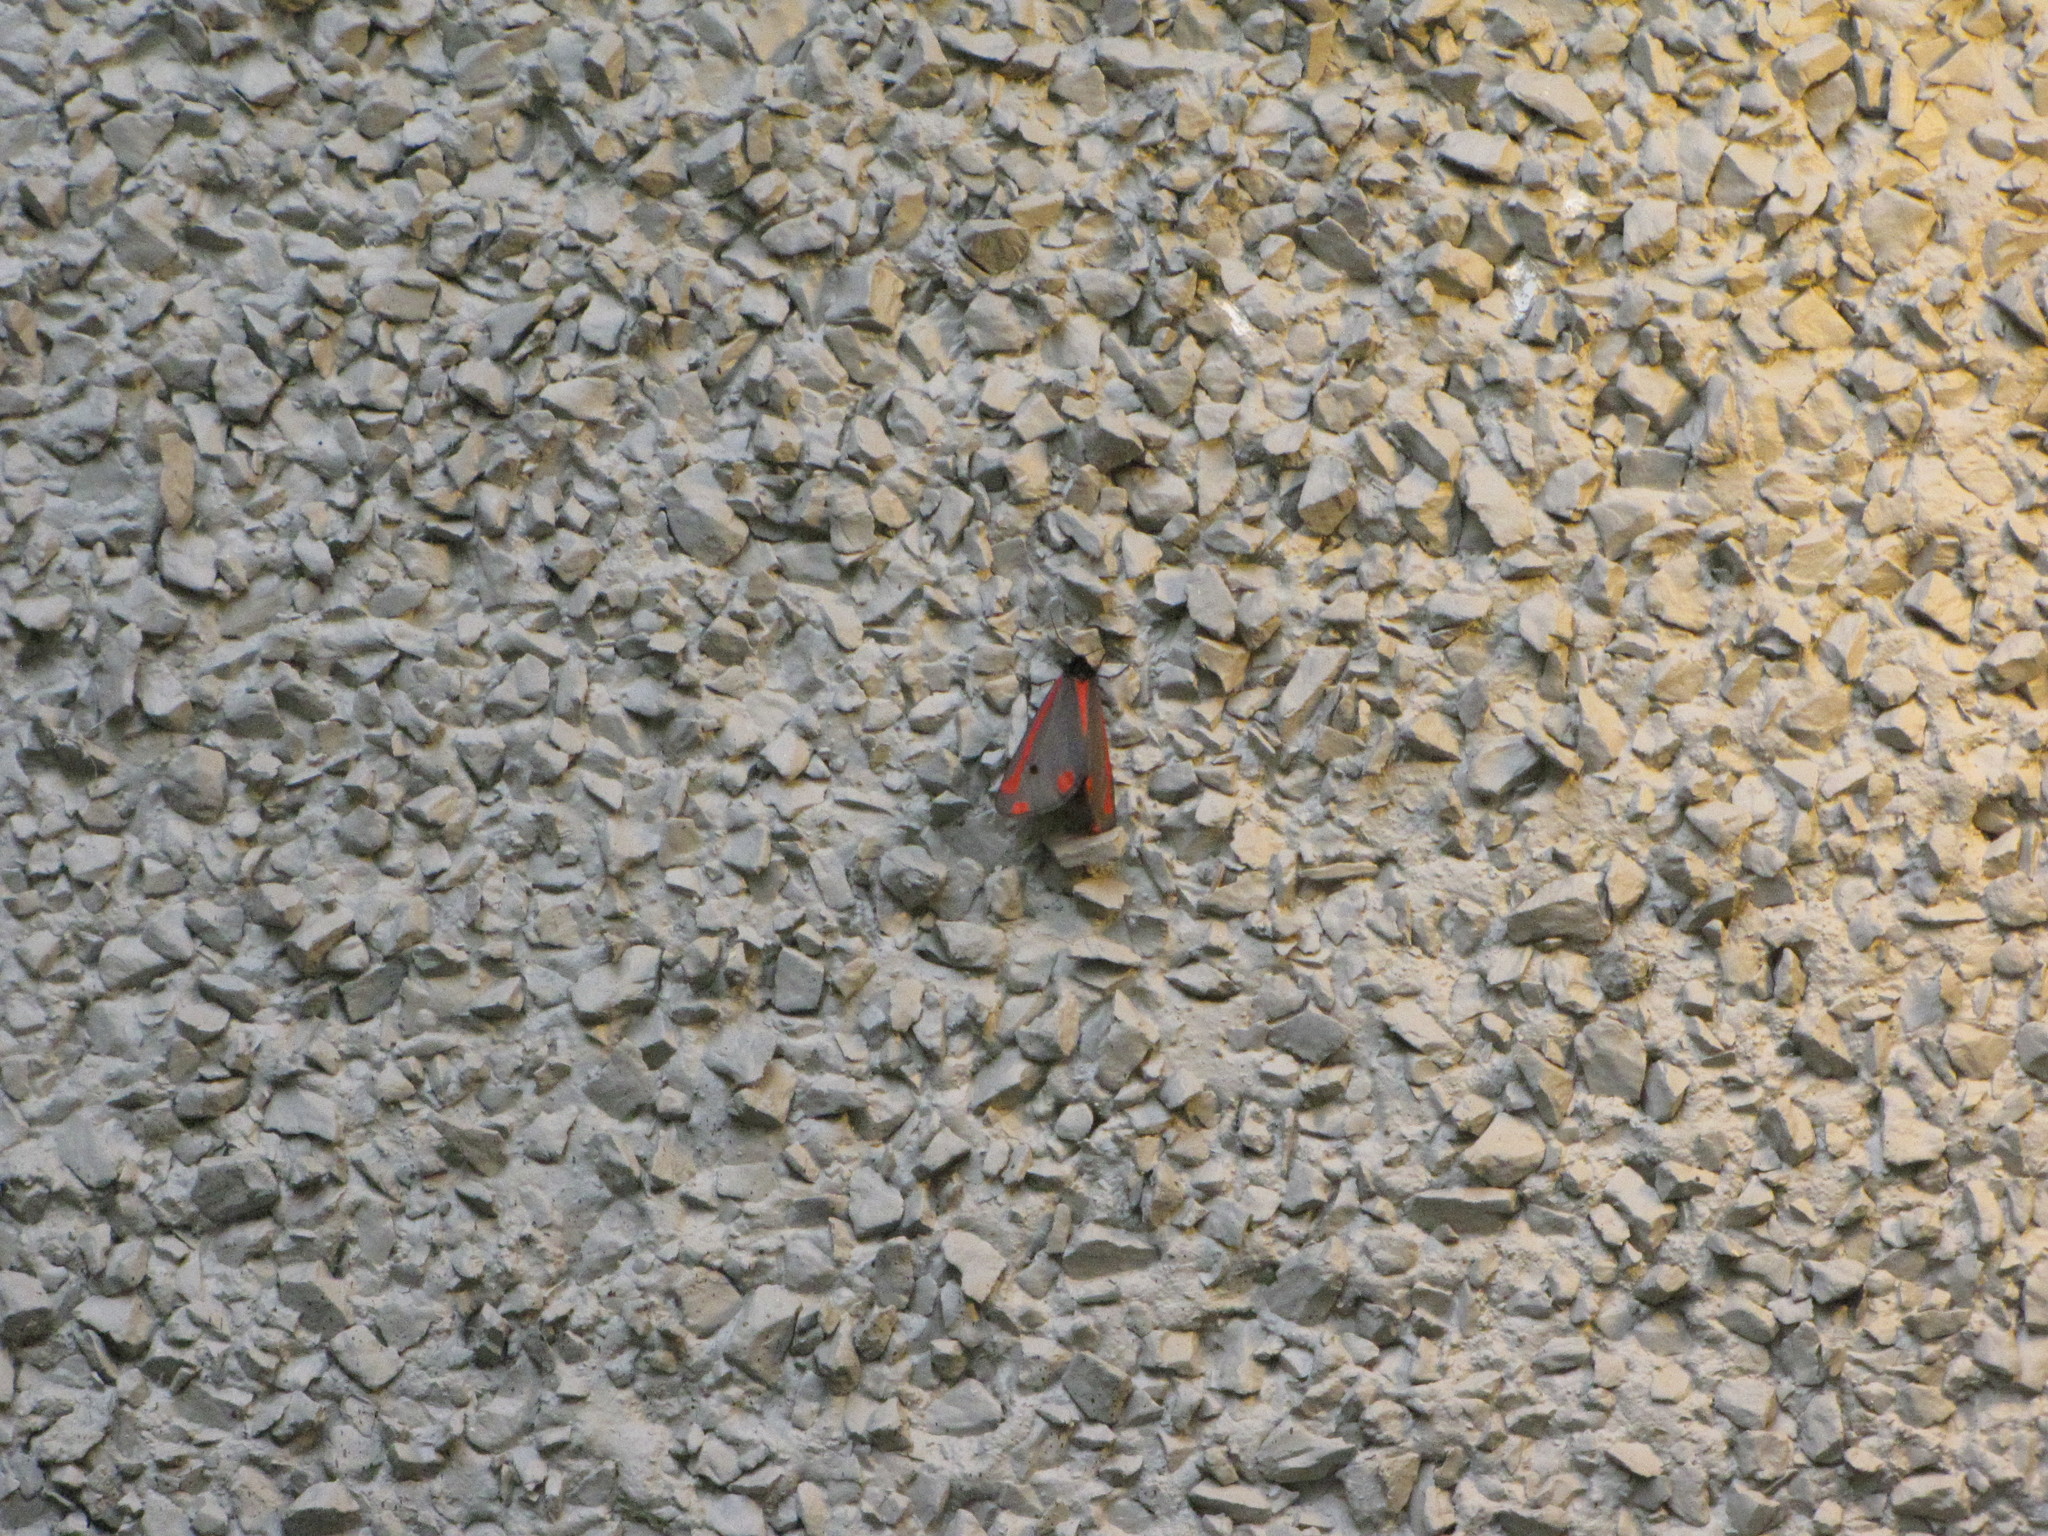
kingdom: Animalia
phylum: Arthropoda
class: Insecta
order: Lepidoptera
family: Erebidae
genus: Tyria
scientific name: Tyria jacobaeae
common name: Cinnabar
